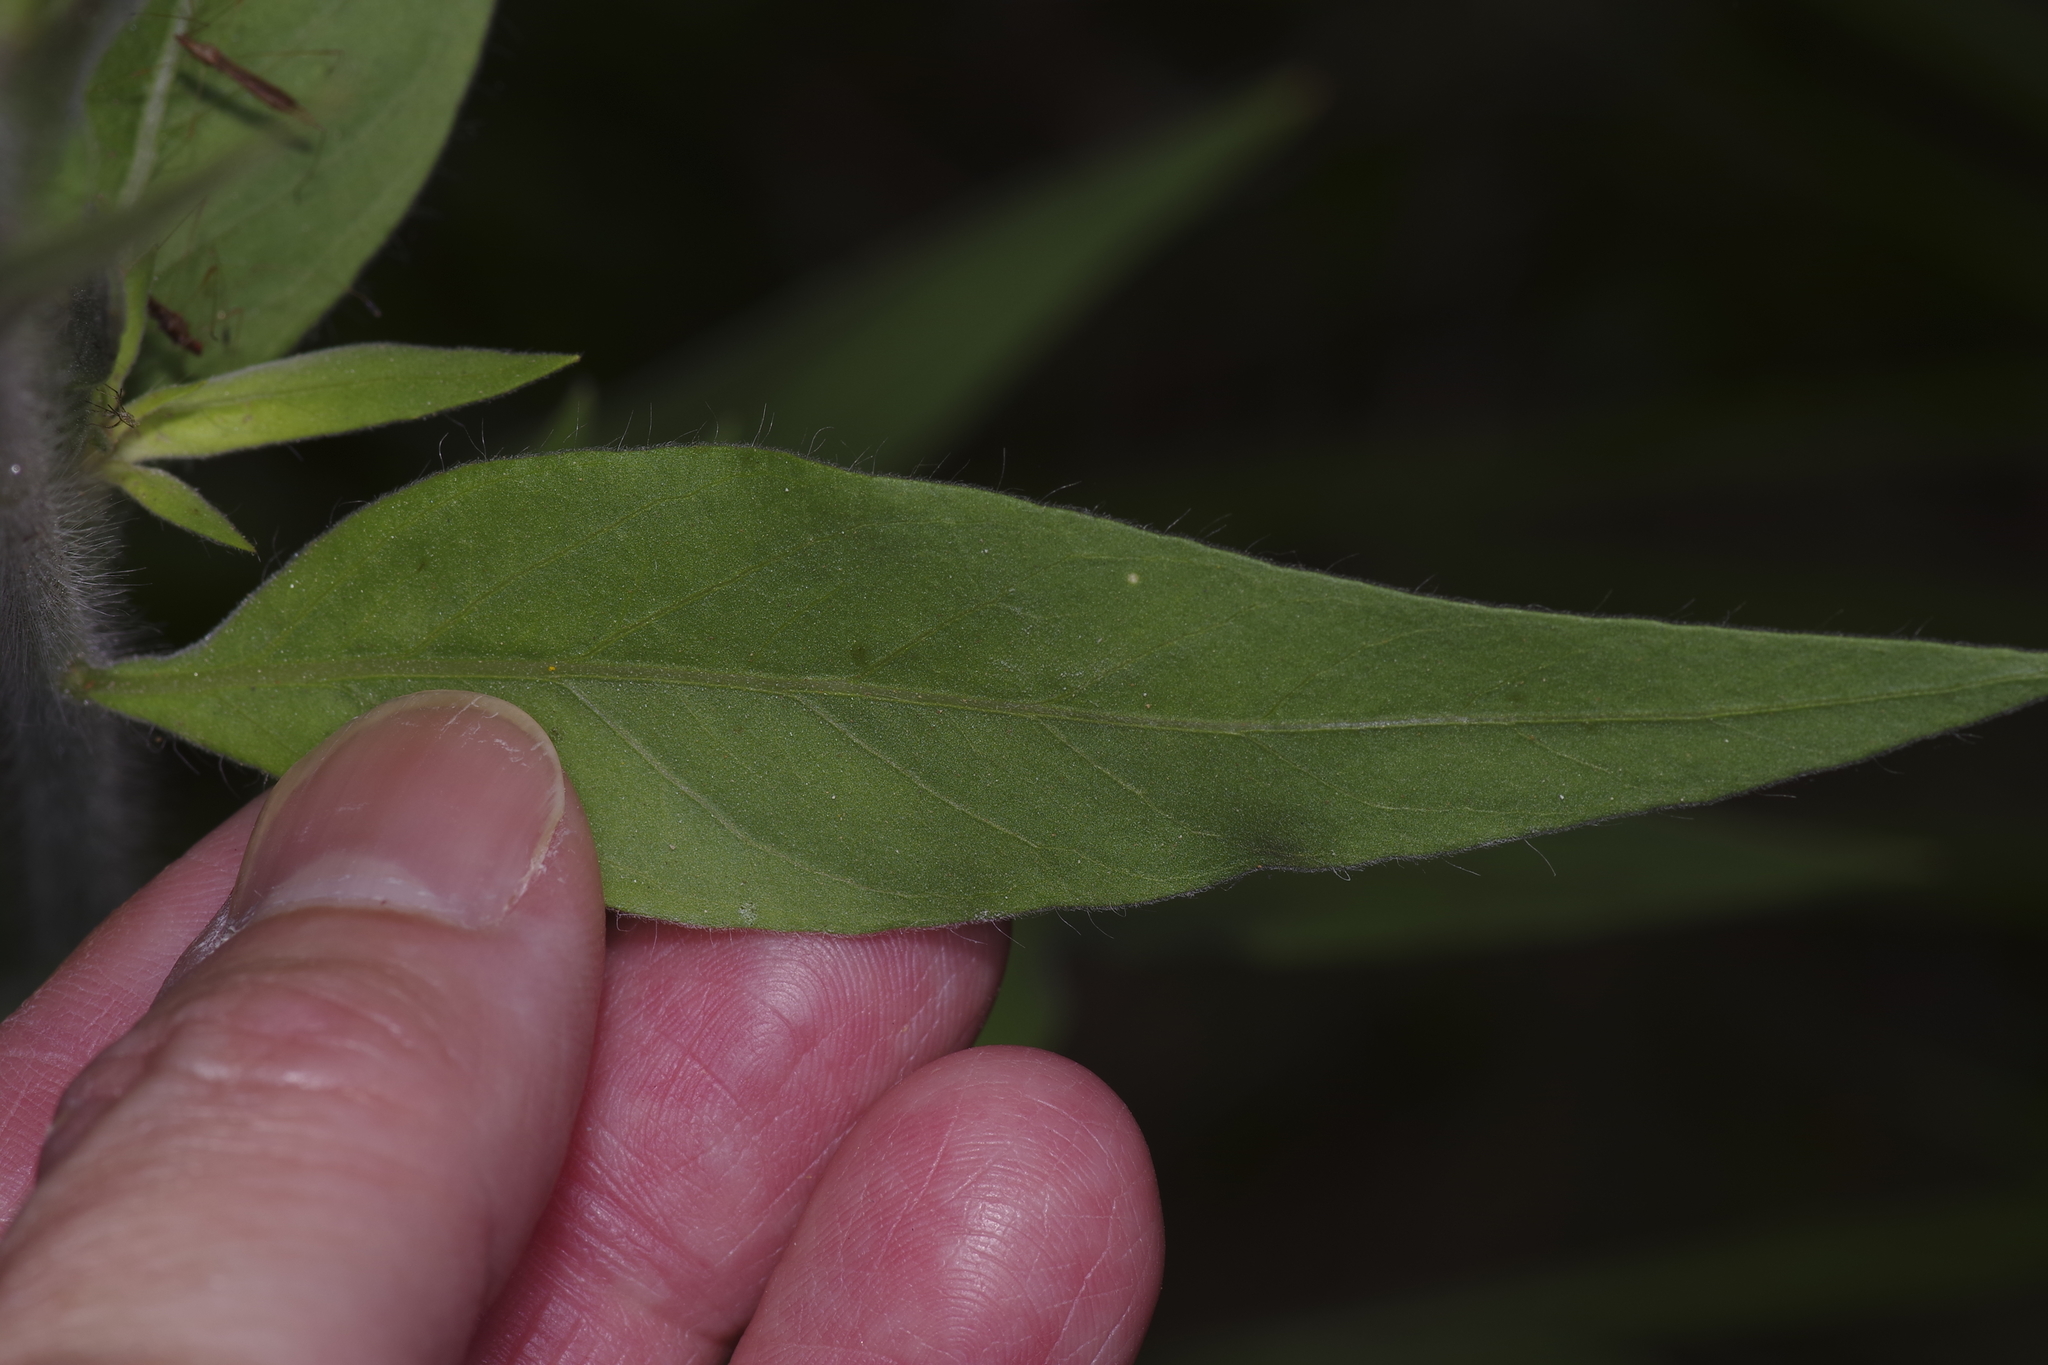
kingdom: Plantae
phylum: Tracheophyta
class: Magnoliopsida
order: Myrtales
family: Onagraceae
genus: Oenothera
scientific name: Oenothera curtiflora
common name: Velvetweed
